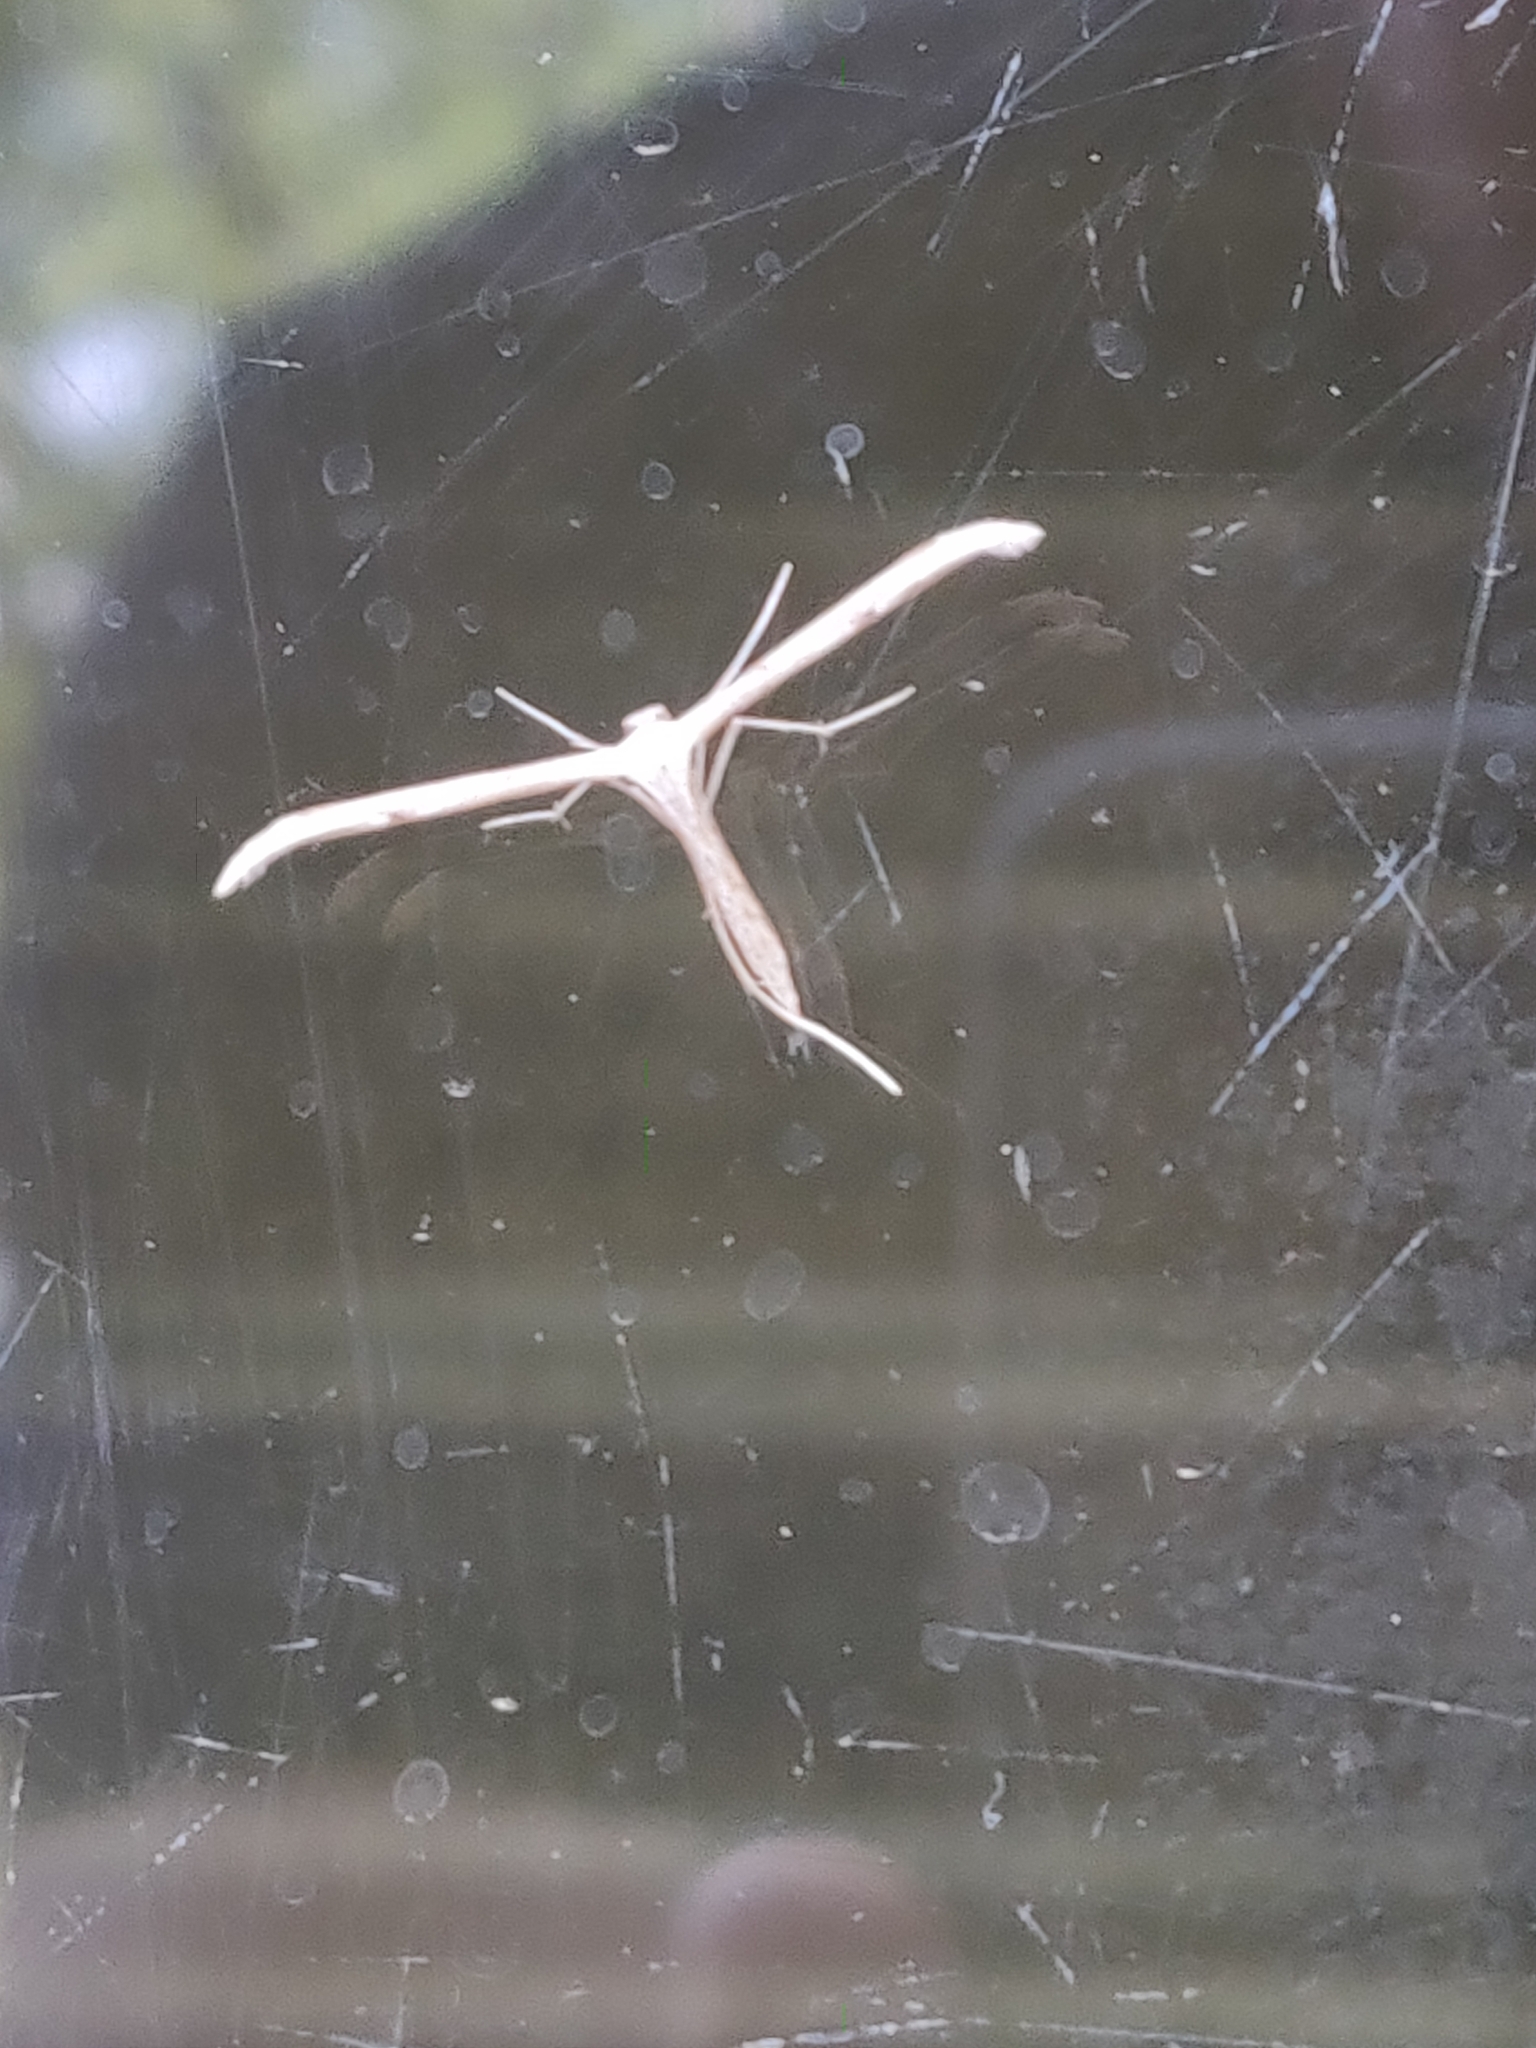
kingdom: Animalia
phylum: Arthropoda
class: Insecta
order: Lepidoptera
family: Pterophoridae
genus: Emmelina
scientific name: Emmelina monodactyla
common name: Common plume
